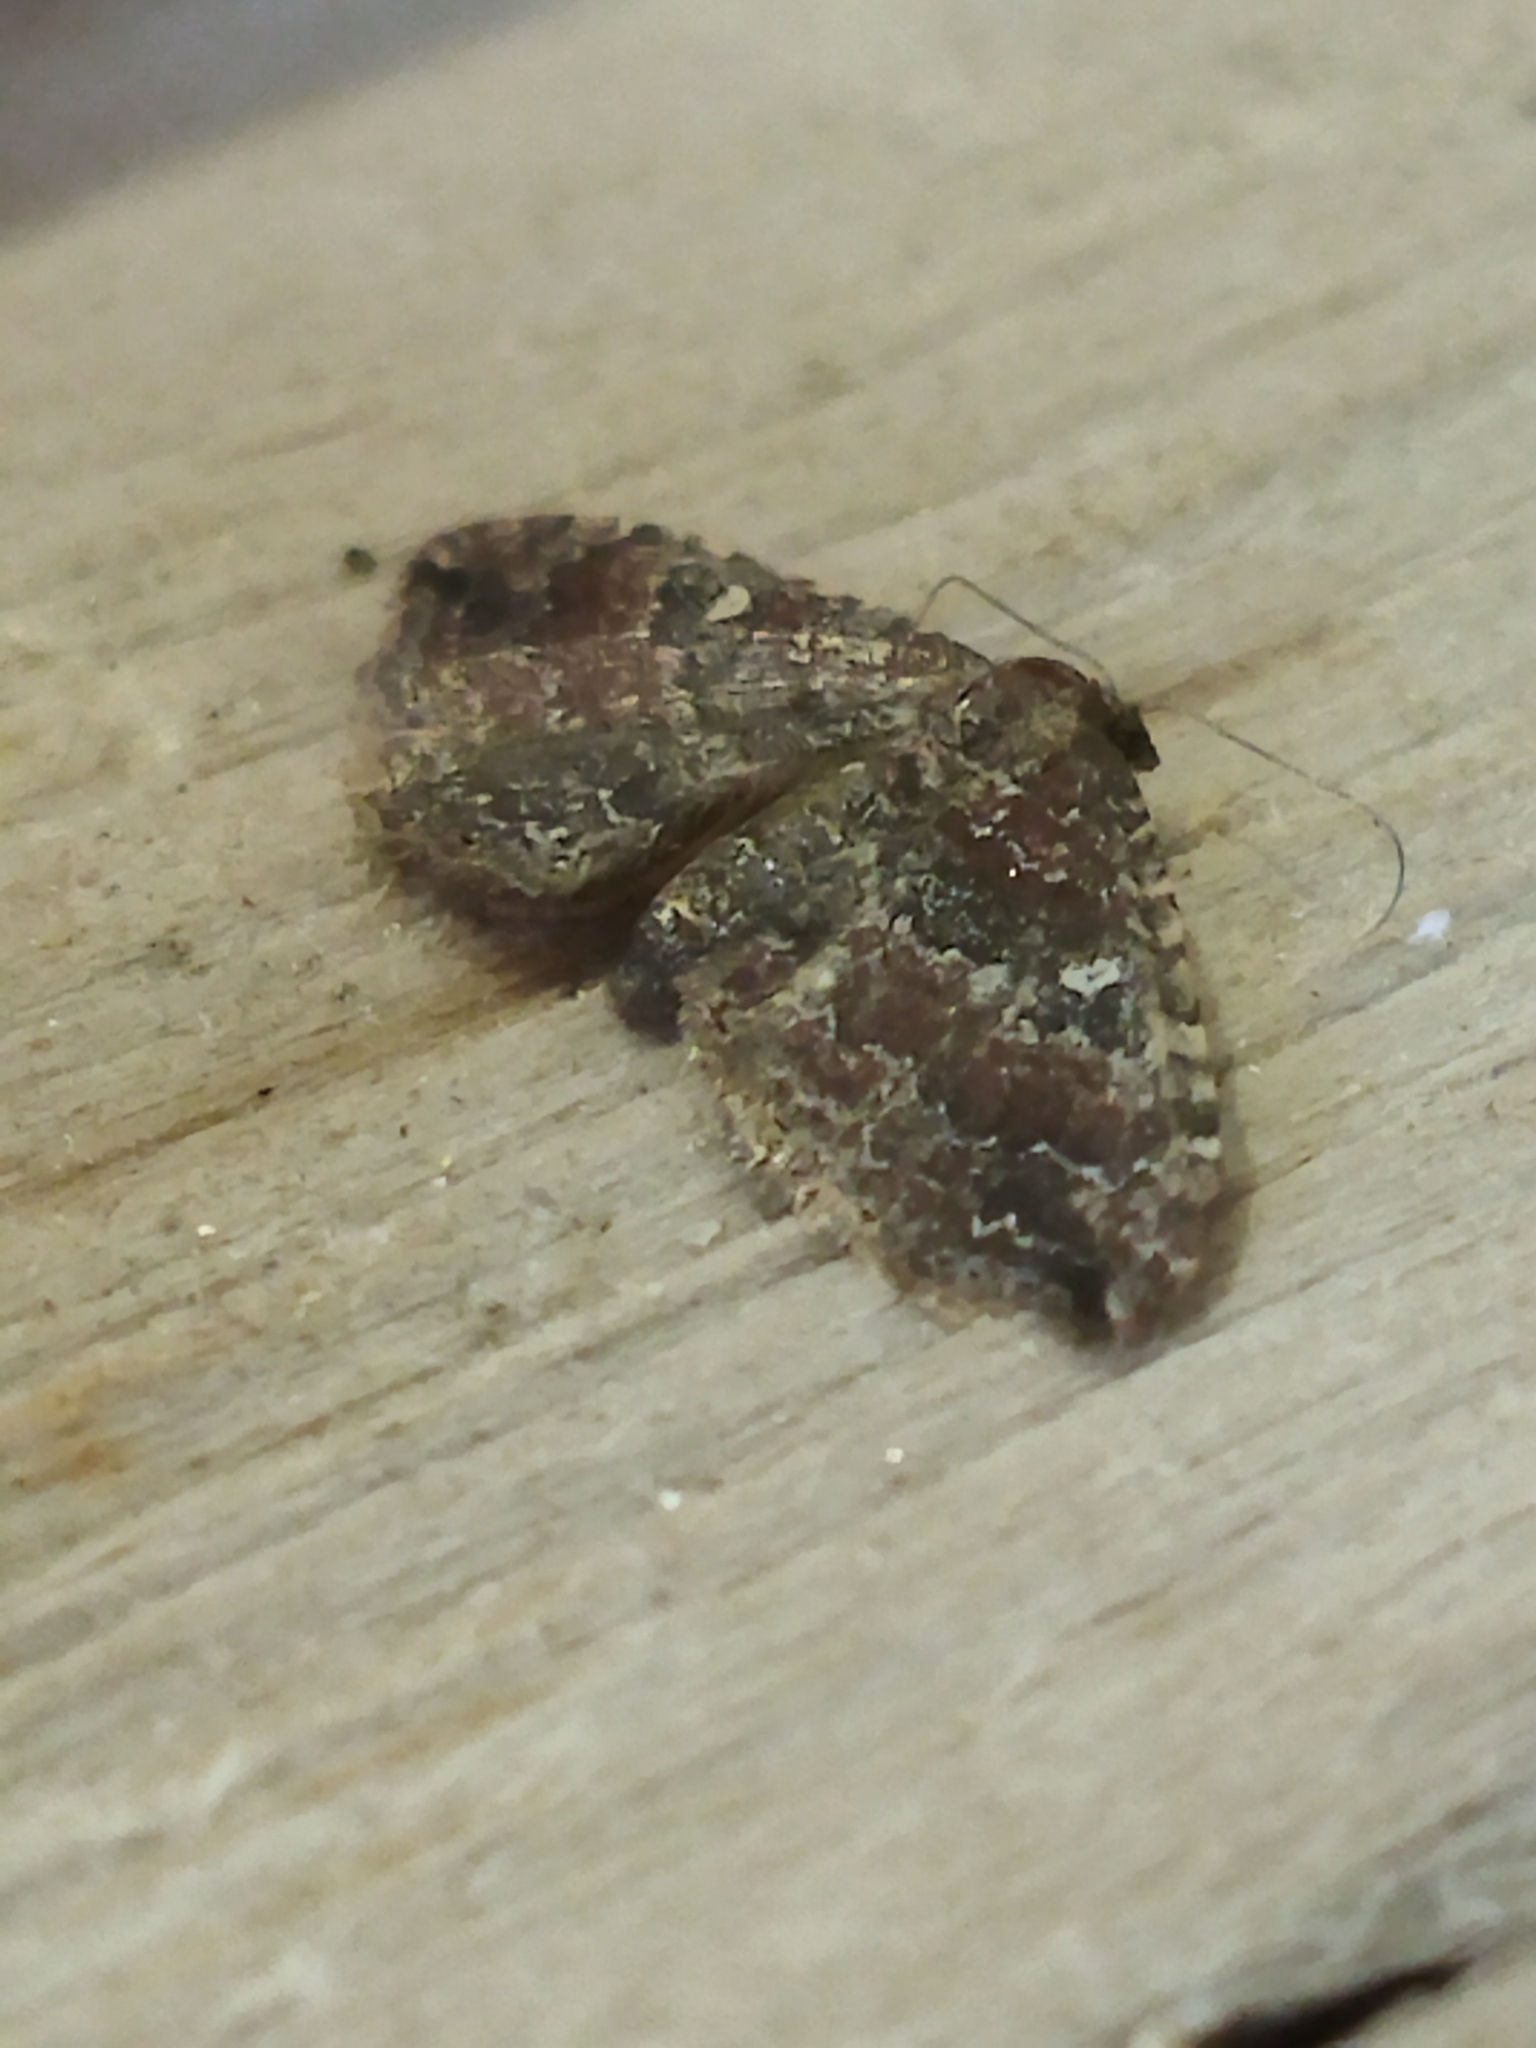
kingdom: Animalia
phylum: Arthropoda
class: Insecta
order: Lepidoptera
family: Geometridae
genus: Orthonama
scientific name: Orthonama obstipata
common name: The gem
